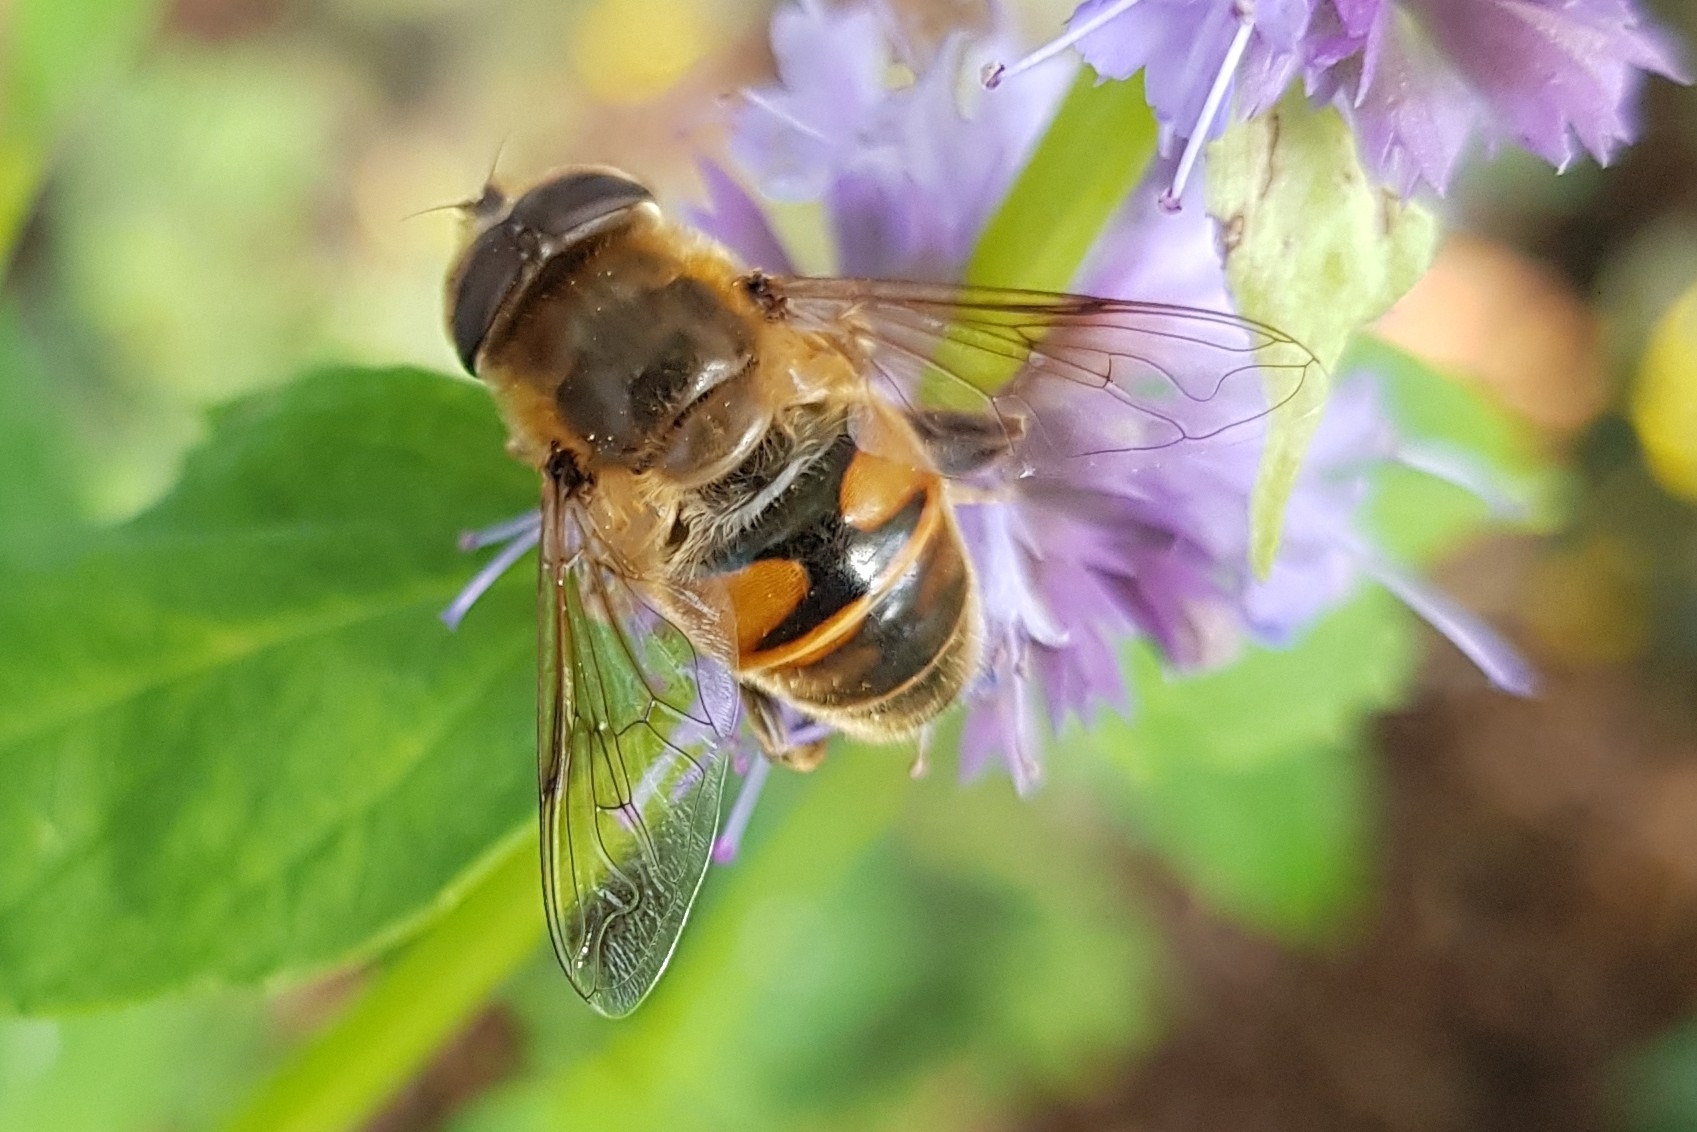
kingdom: Animalia
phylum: Arthropoda
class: Insecta
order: Diptera
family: Syrphidae
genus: Eristalis
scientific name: Eristalis tenax
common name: Drone fly
